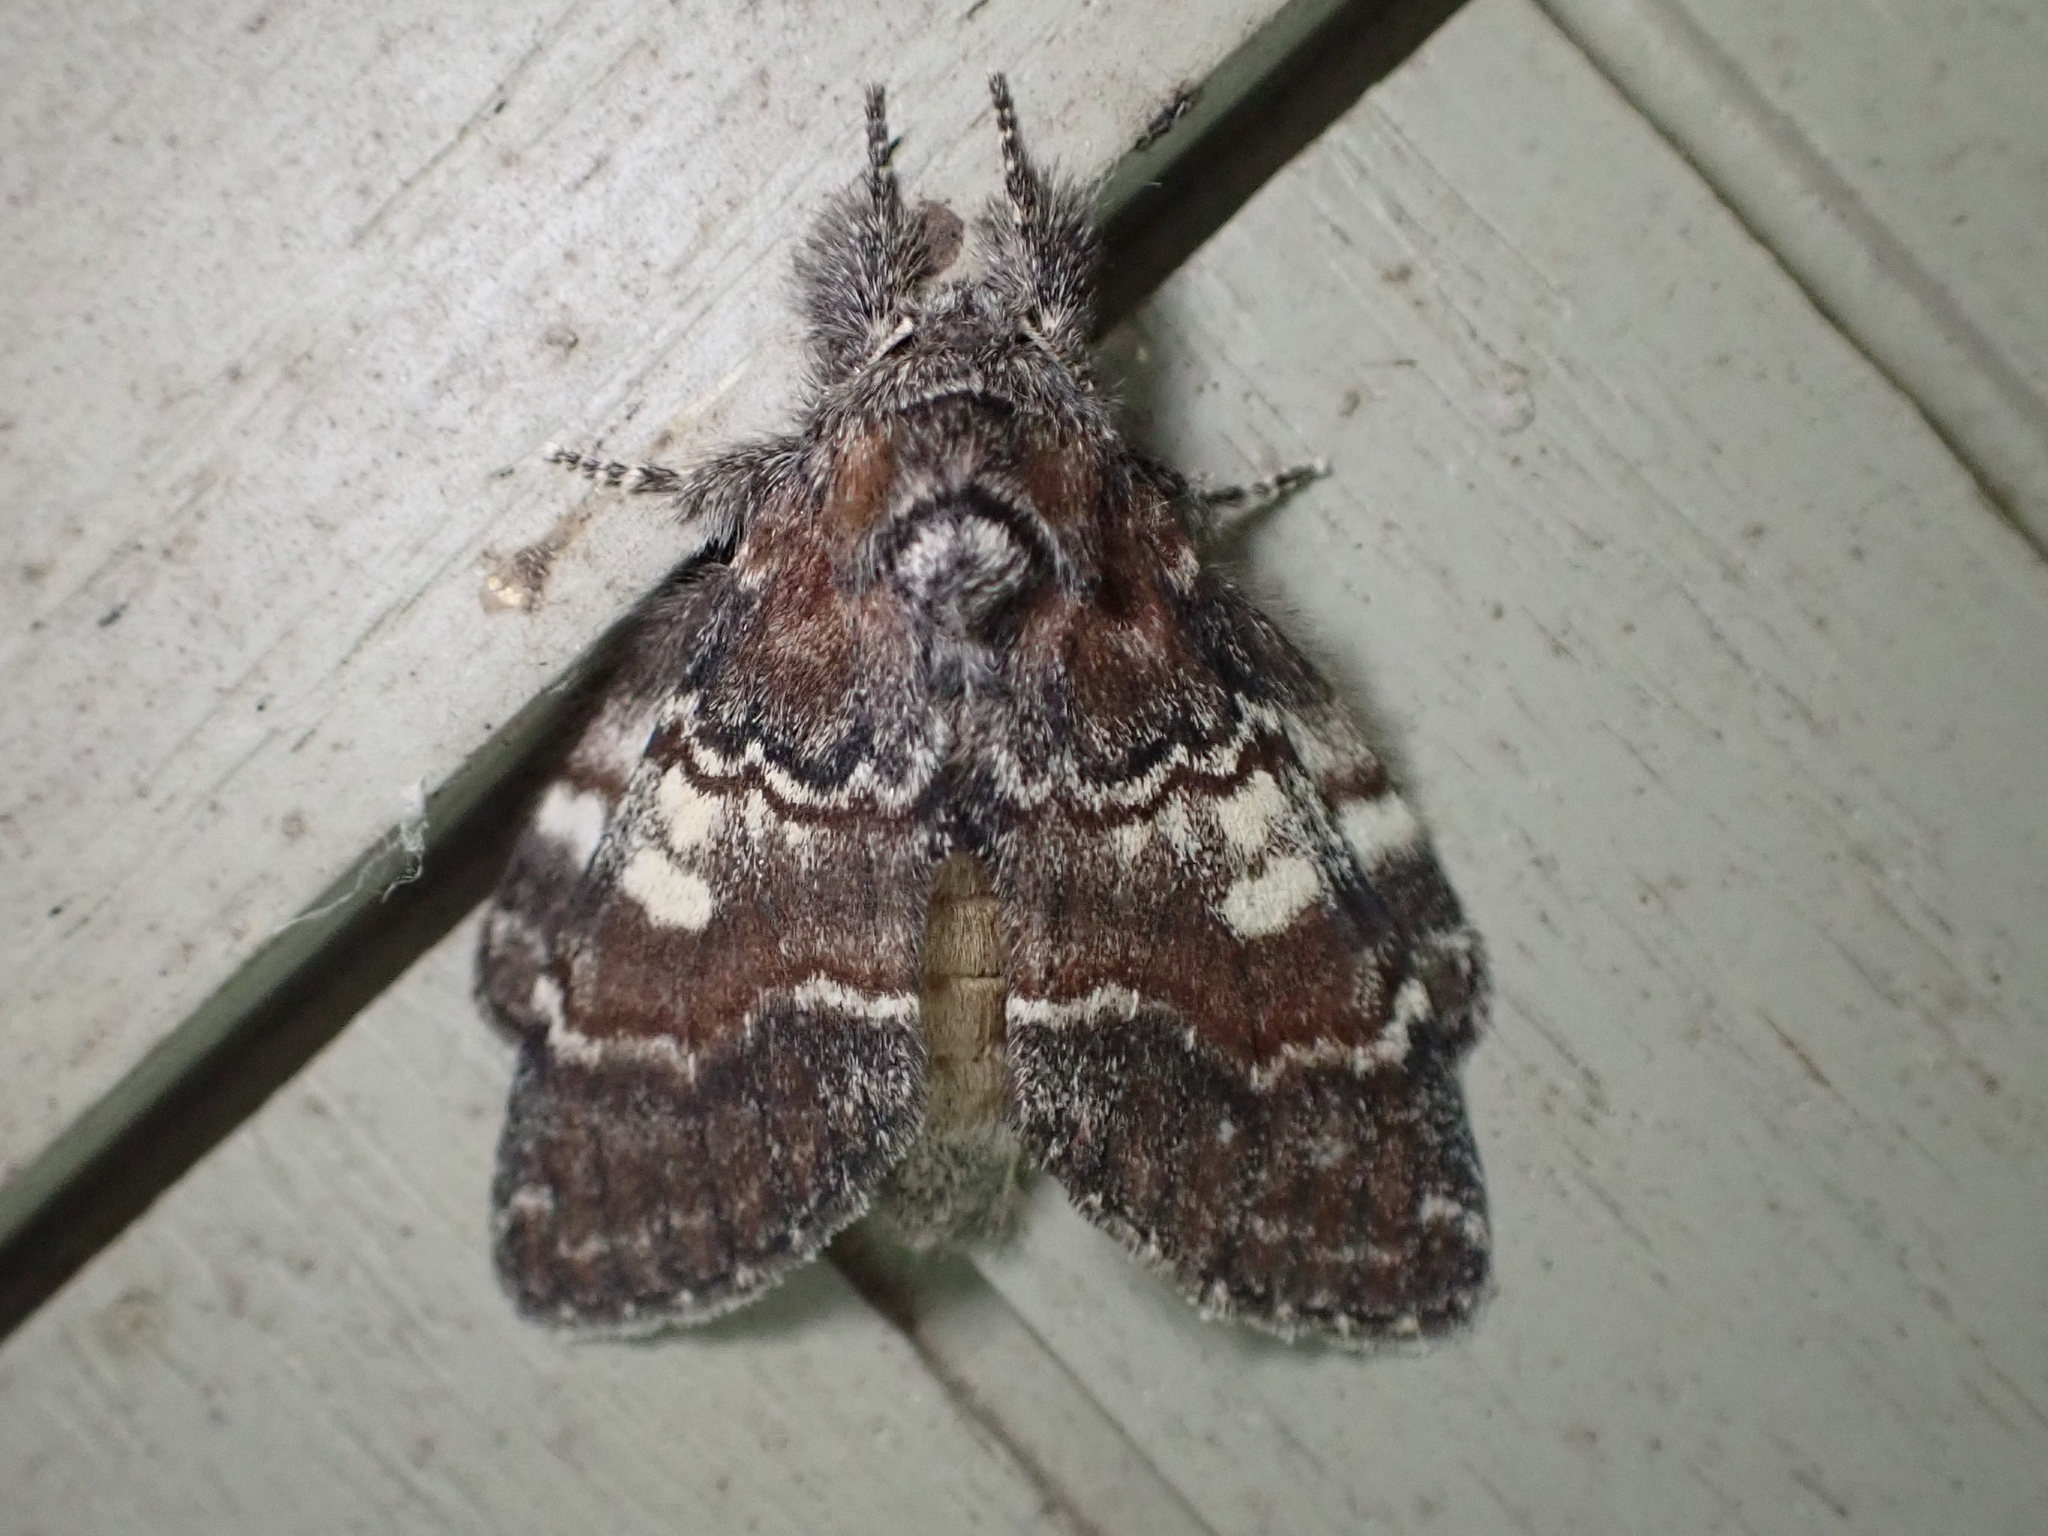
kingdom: Animalia
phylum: Arthropoda
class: Insecta
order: Lepidoptera
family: Notodontidae
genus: Peridea
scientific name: Peridea ferruginea
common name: Chocolate prominent
